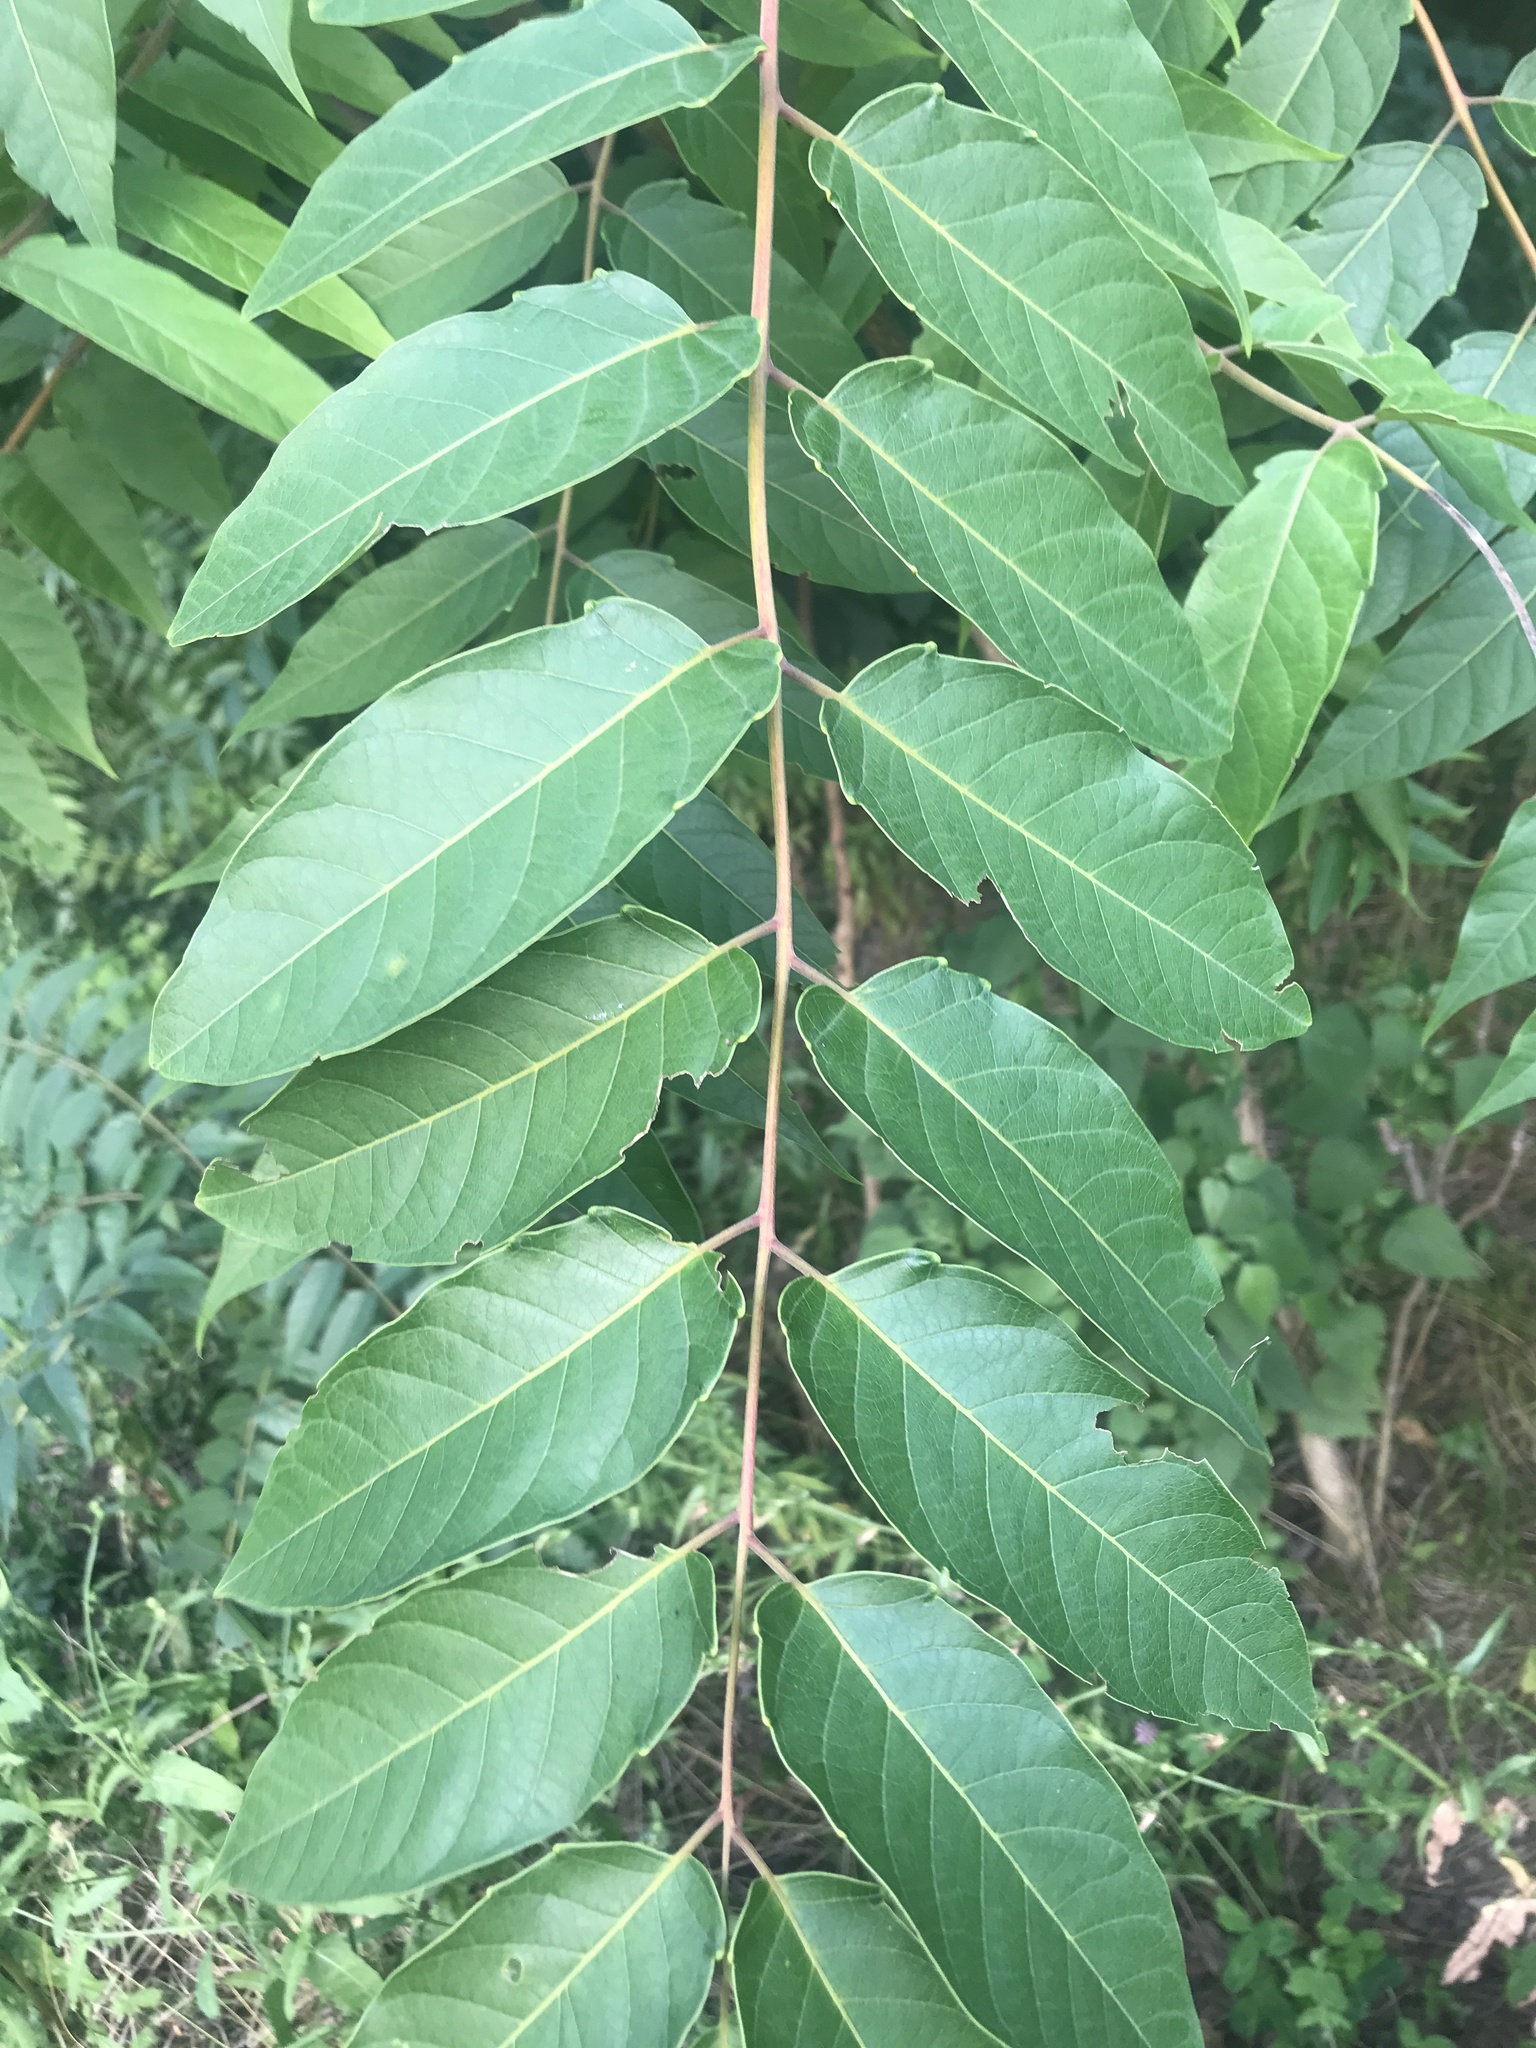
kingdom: Plantae
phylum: Tracheophyta
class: Magnoliopsida
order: Sapindales
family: Simaroubaceae
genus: Ailanthus
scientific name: Ailanthus altissima
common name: Tree-of-heaven
